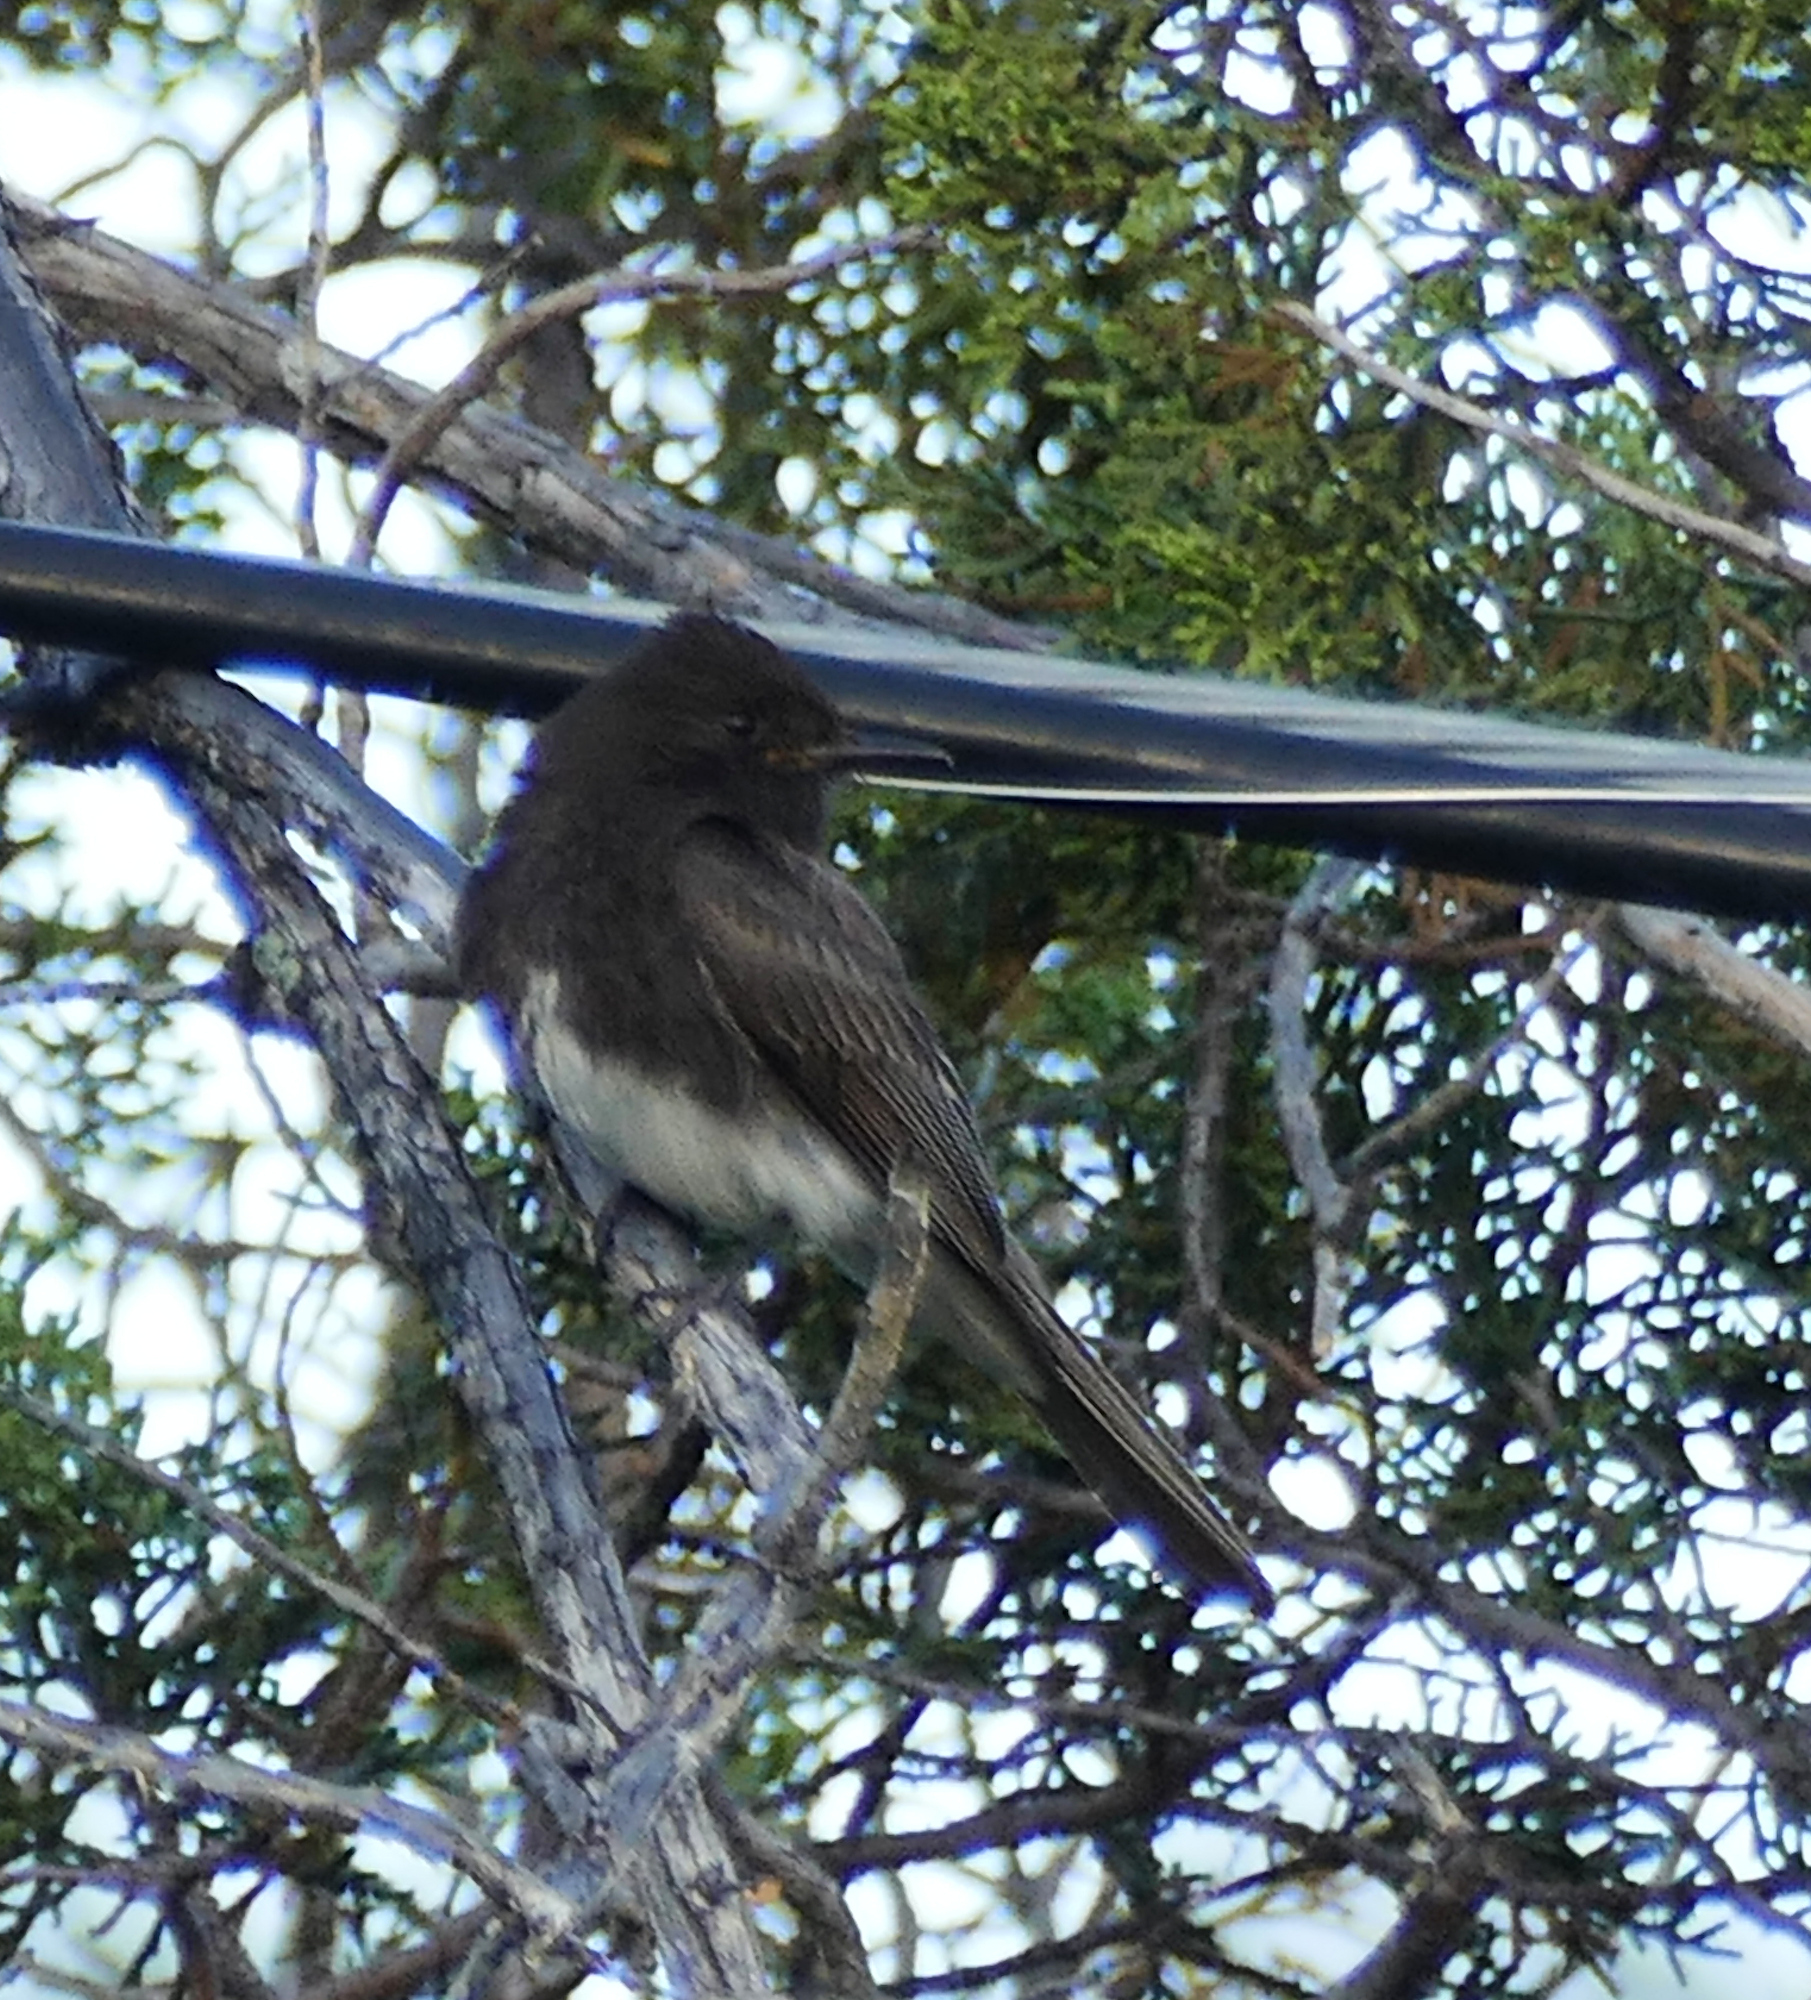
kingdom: Animalia
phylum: Chordata
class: Aves
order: Passeriformes
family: Tyrannidae
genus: Sayornis
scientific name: Sayornis nigricans
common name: Black phoebe
